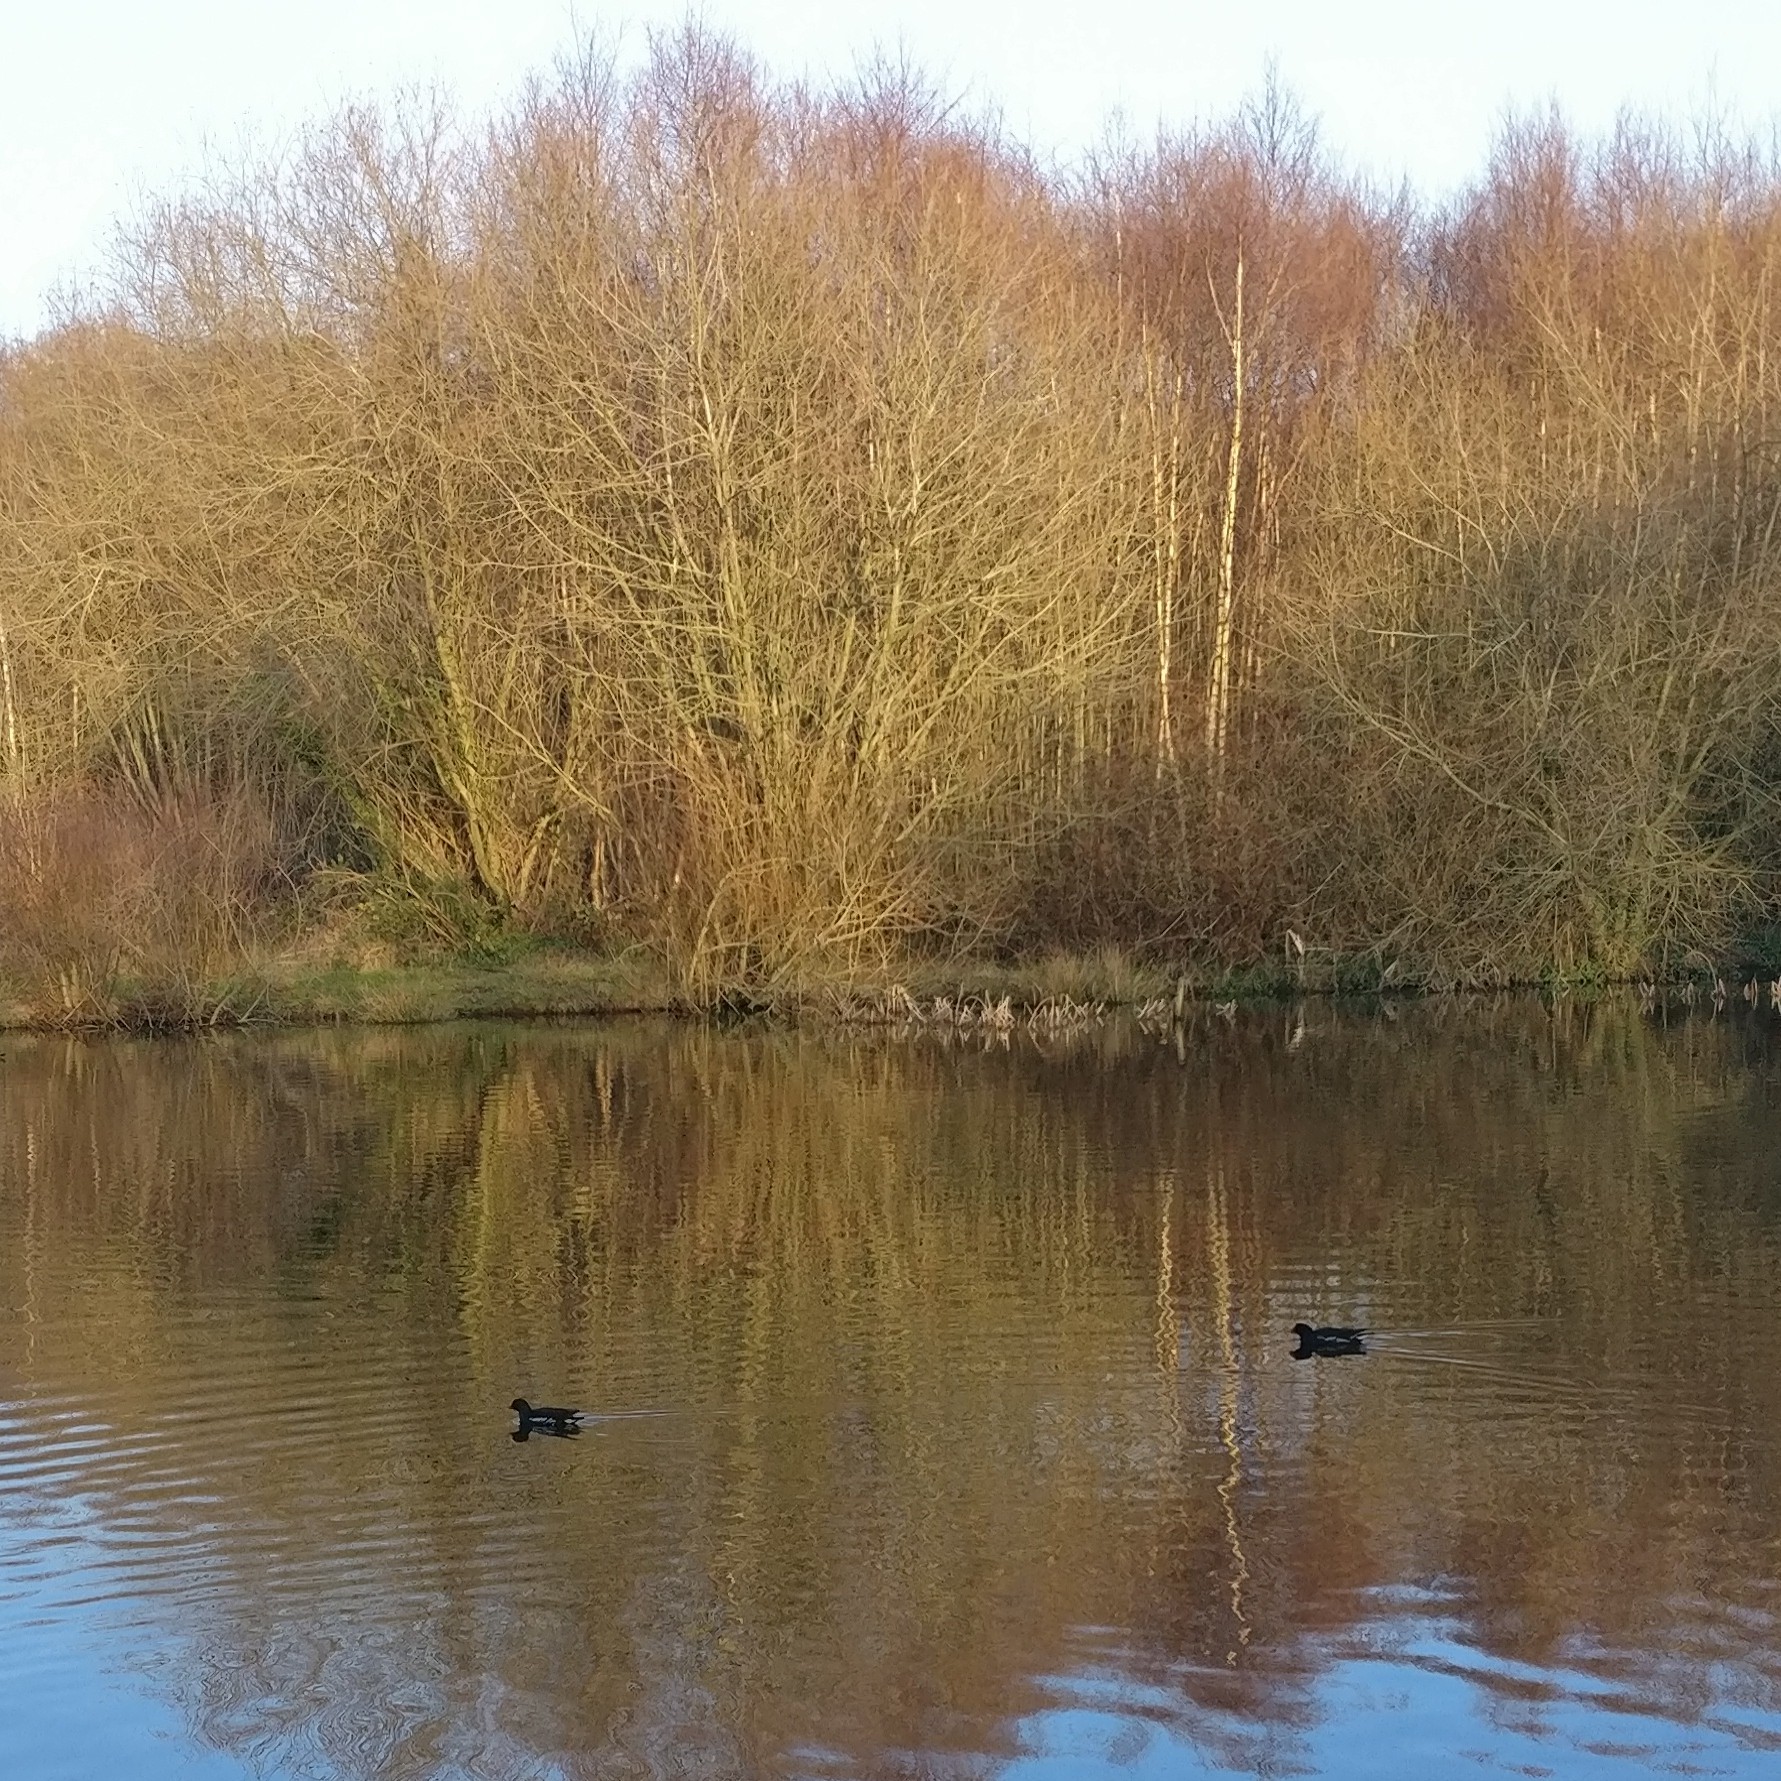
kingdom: Animalia
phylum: Chordata
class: Aves
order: Gruiformes
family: Rallidae
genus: Gallinula
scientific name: Gallinula chloropus
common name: Common moorhen
